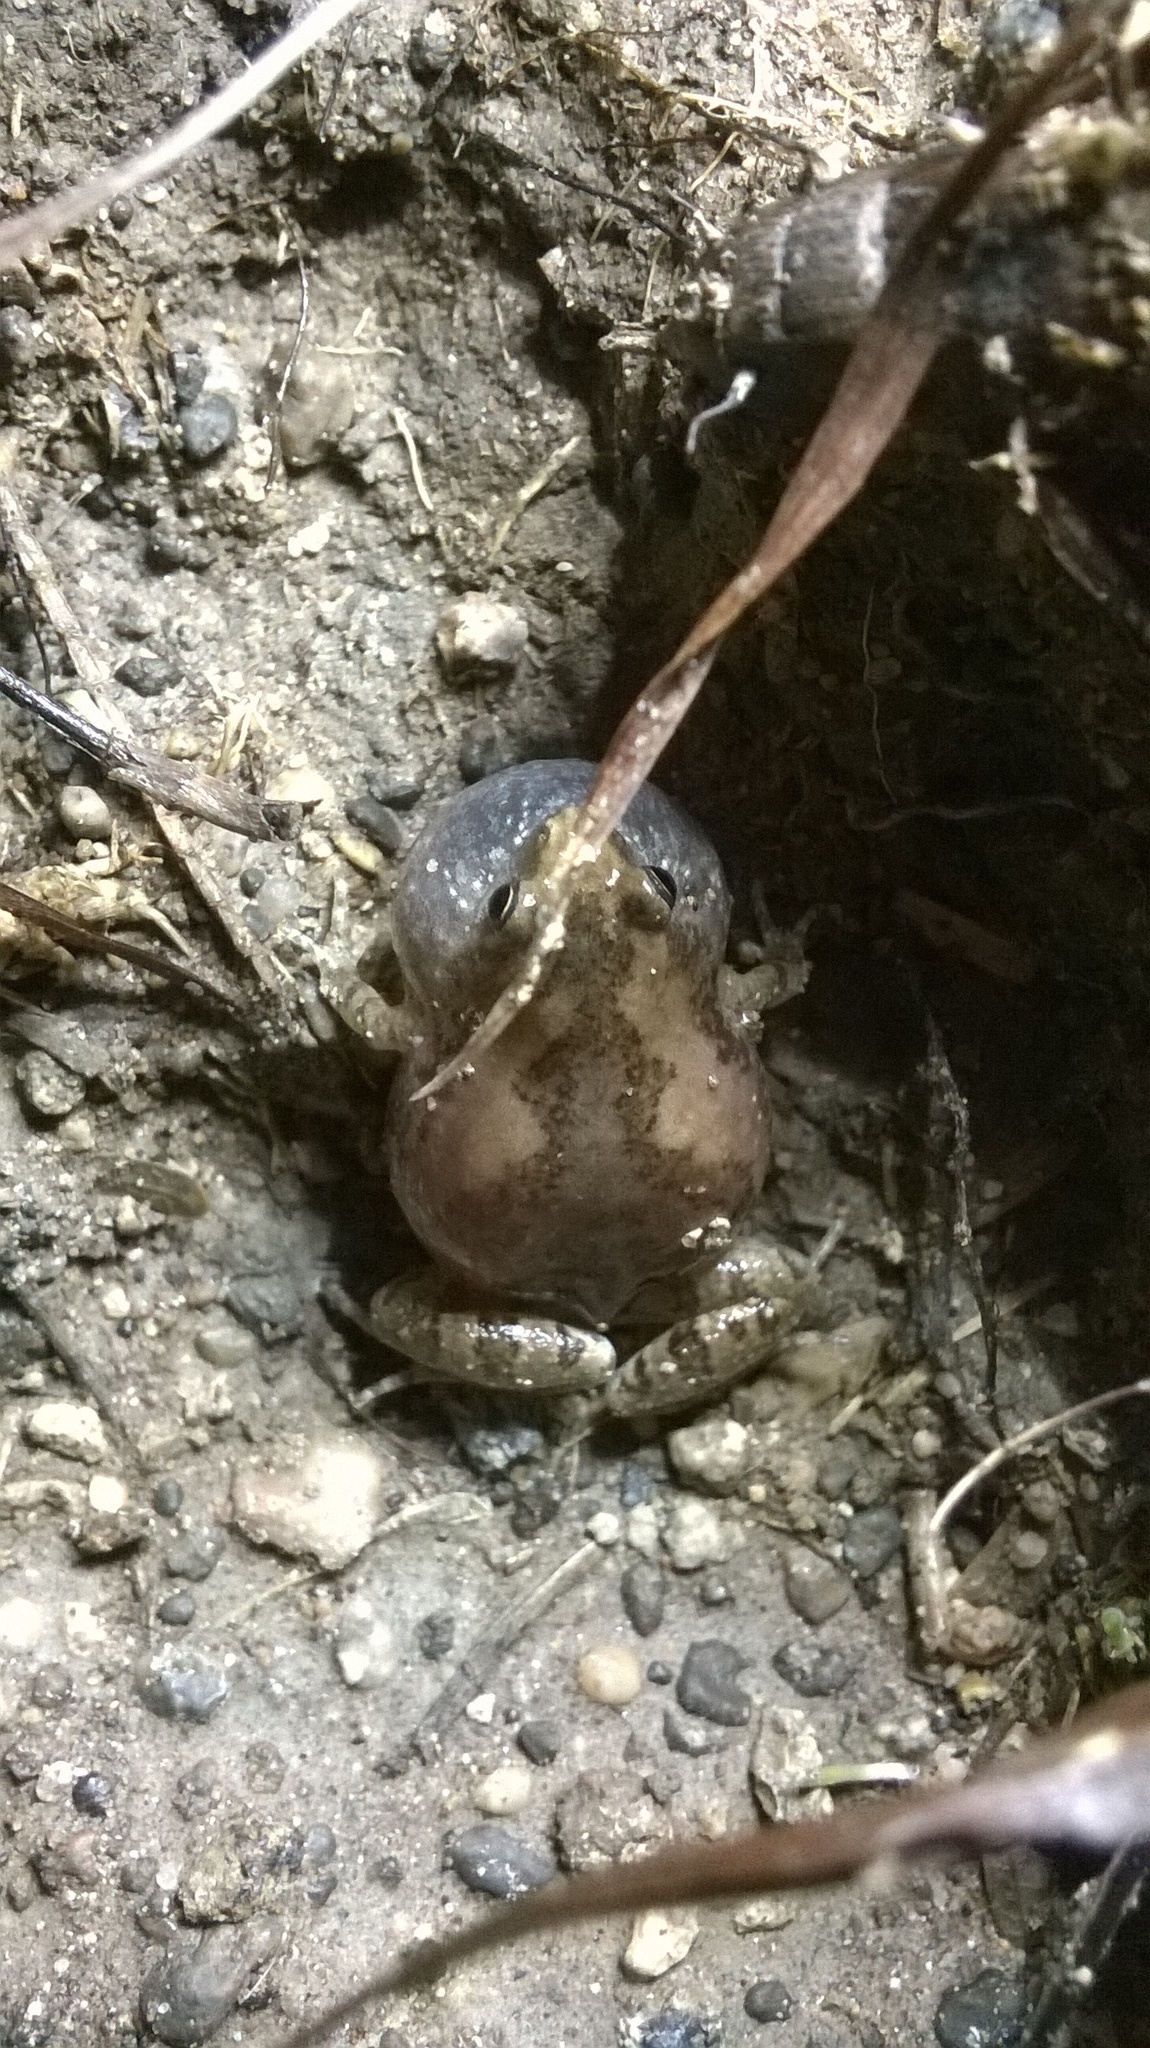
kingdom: Animalia
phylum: Chordata
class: Amphibia
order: Anura
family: Microhylidae
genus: Microhyla
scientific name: Microhyla ornata
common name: Ant frog
